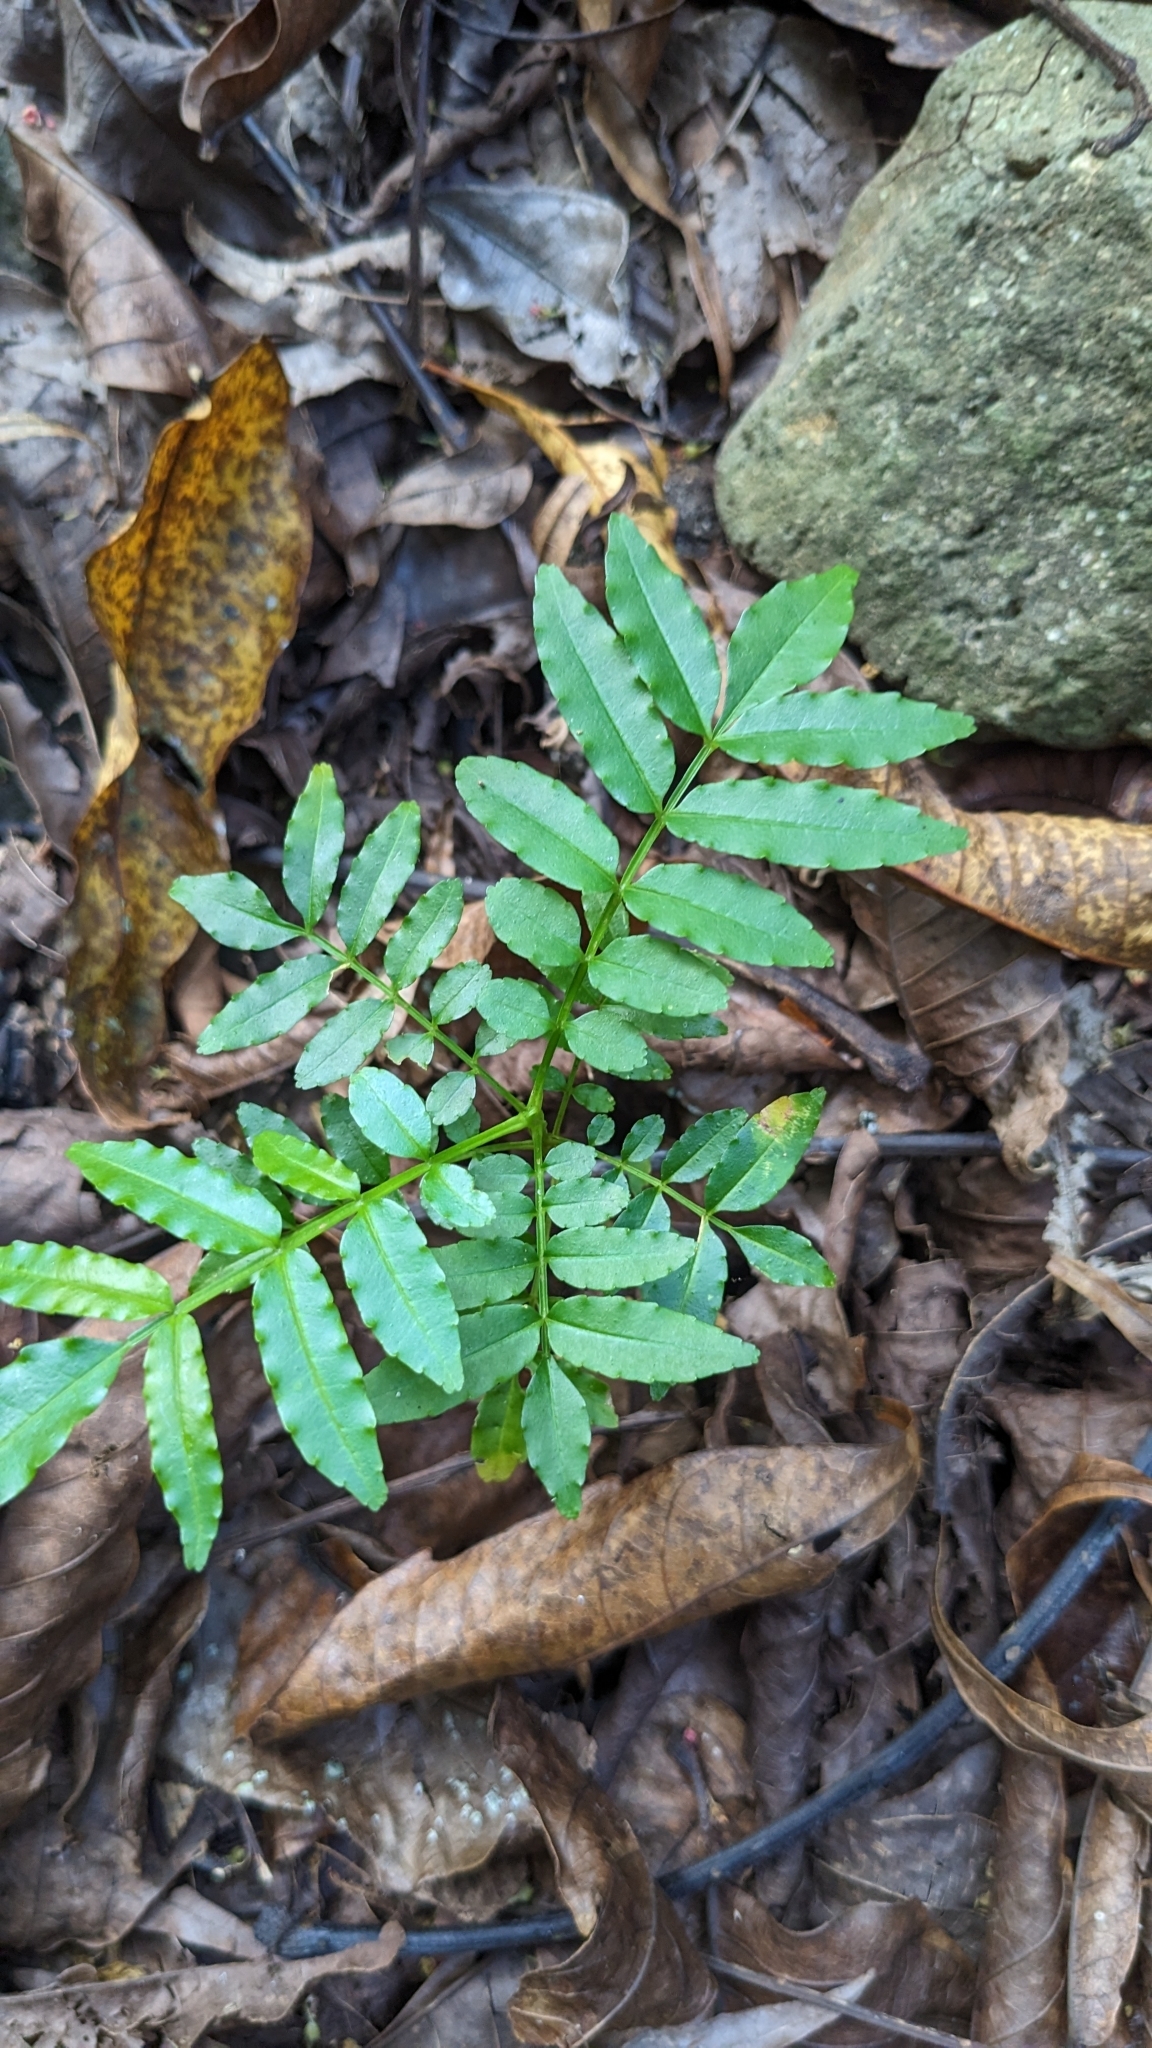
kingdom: Plantae
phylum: Tracheophyta
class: Magnoliopsida
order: Sapindales
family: Rutaceae
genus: Zanthoxylum
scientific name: Zanthoxylum integrifoliolum
